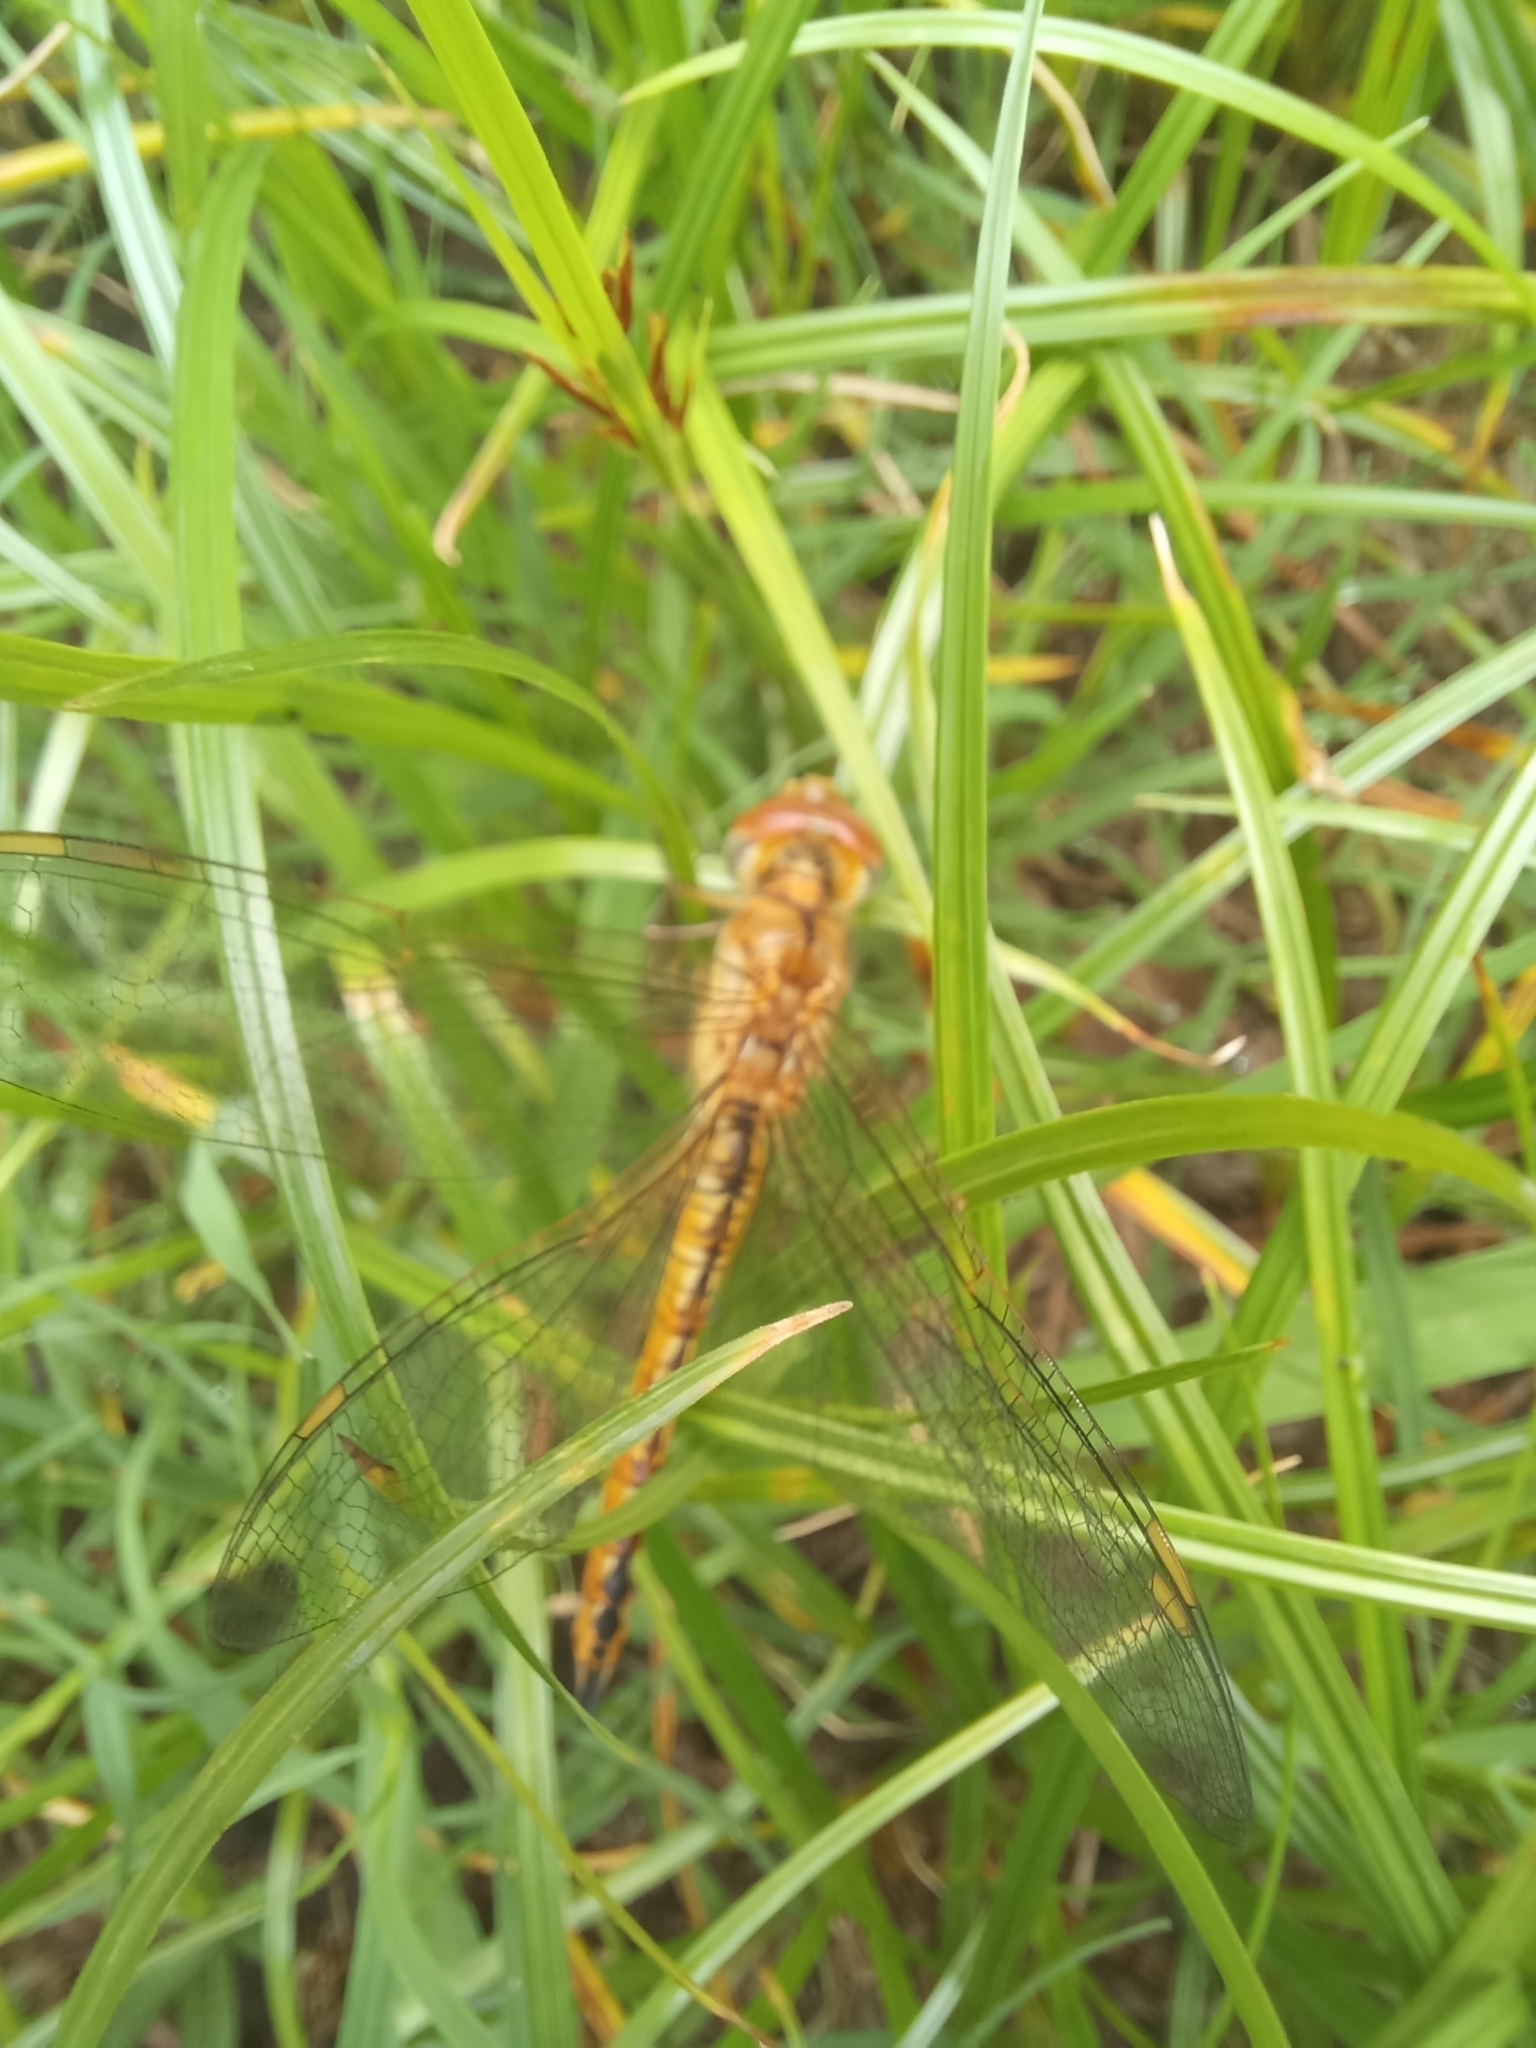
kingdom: Animalia
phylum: Arthropoda
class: Insecta
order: Odonata
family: Libellulidae
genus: Pantala
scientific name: Pantala flavescens
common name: Wandering glider
